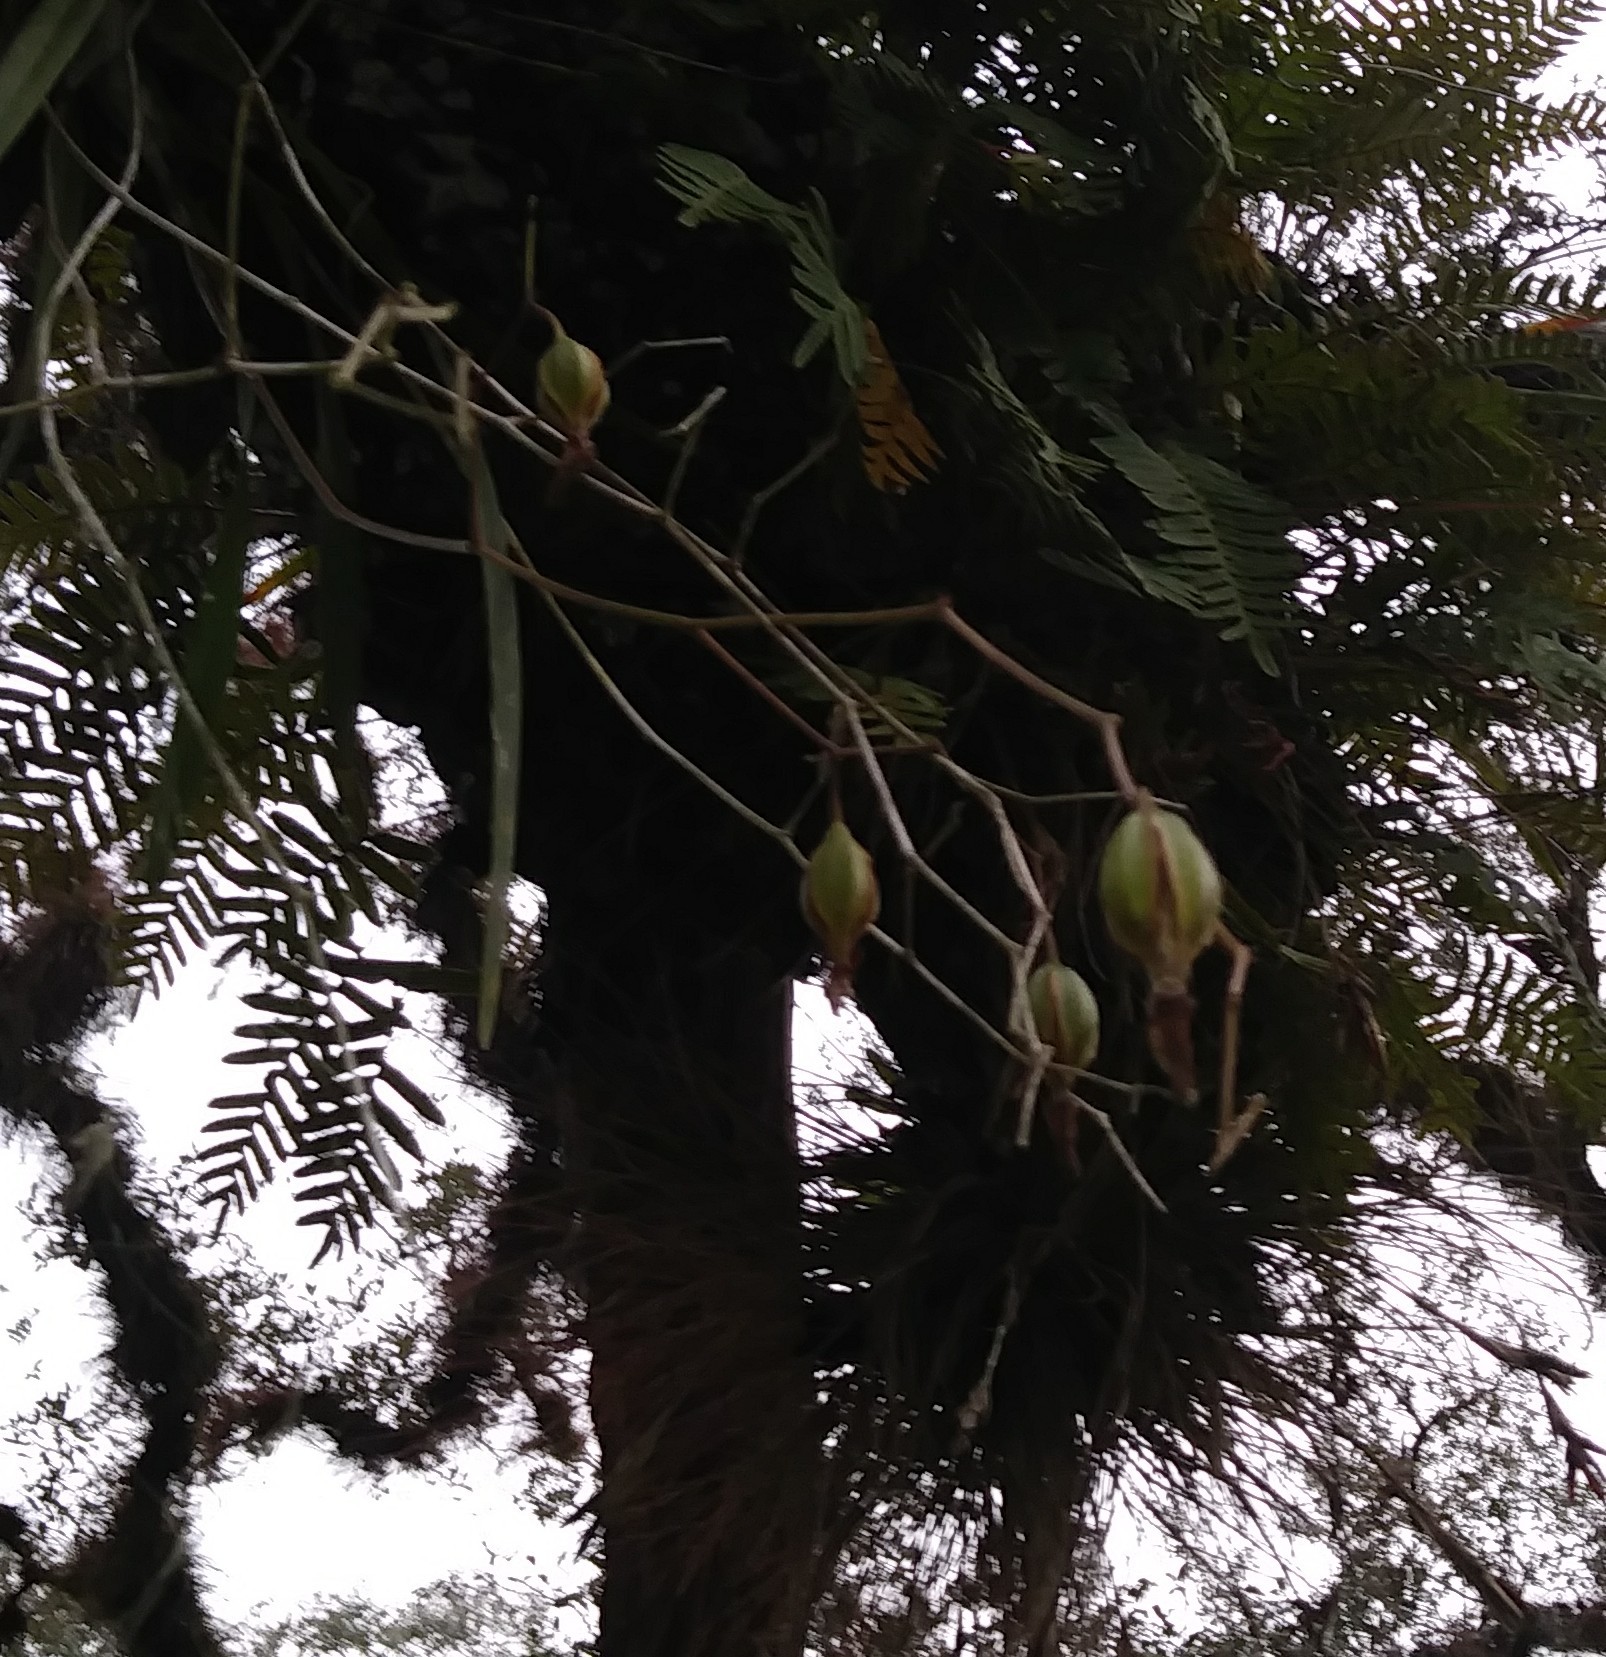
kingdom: Plantae
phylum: Tracheophyta
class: Liliopsida
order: Asparagales
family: Orchidaceae
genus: Encyclia
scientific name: Encyclia tampensis
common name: Florida butterfly orchid
